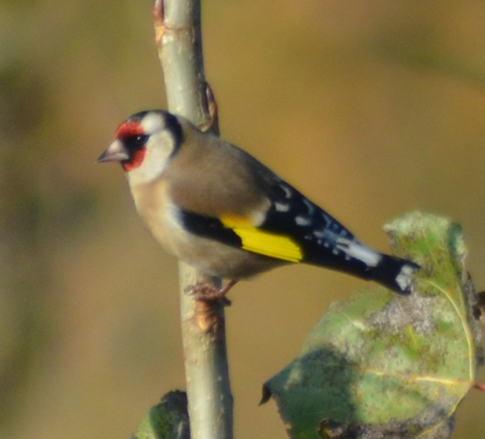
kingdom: Animalia
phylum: Chordata
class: Aves
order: Passeriformes
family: Fringillidae
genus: Carduelis
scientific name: Carduelis carduelis
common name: European goldfinch
